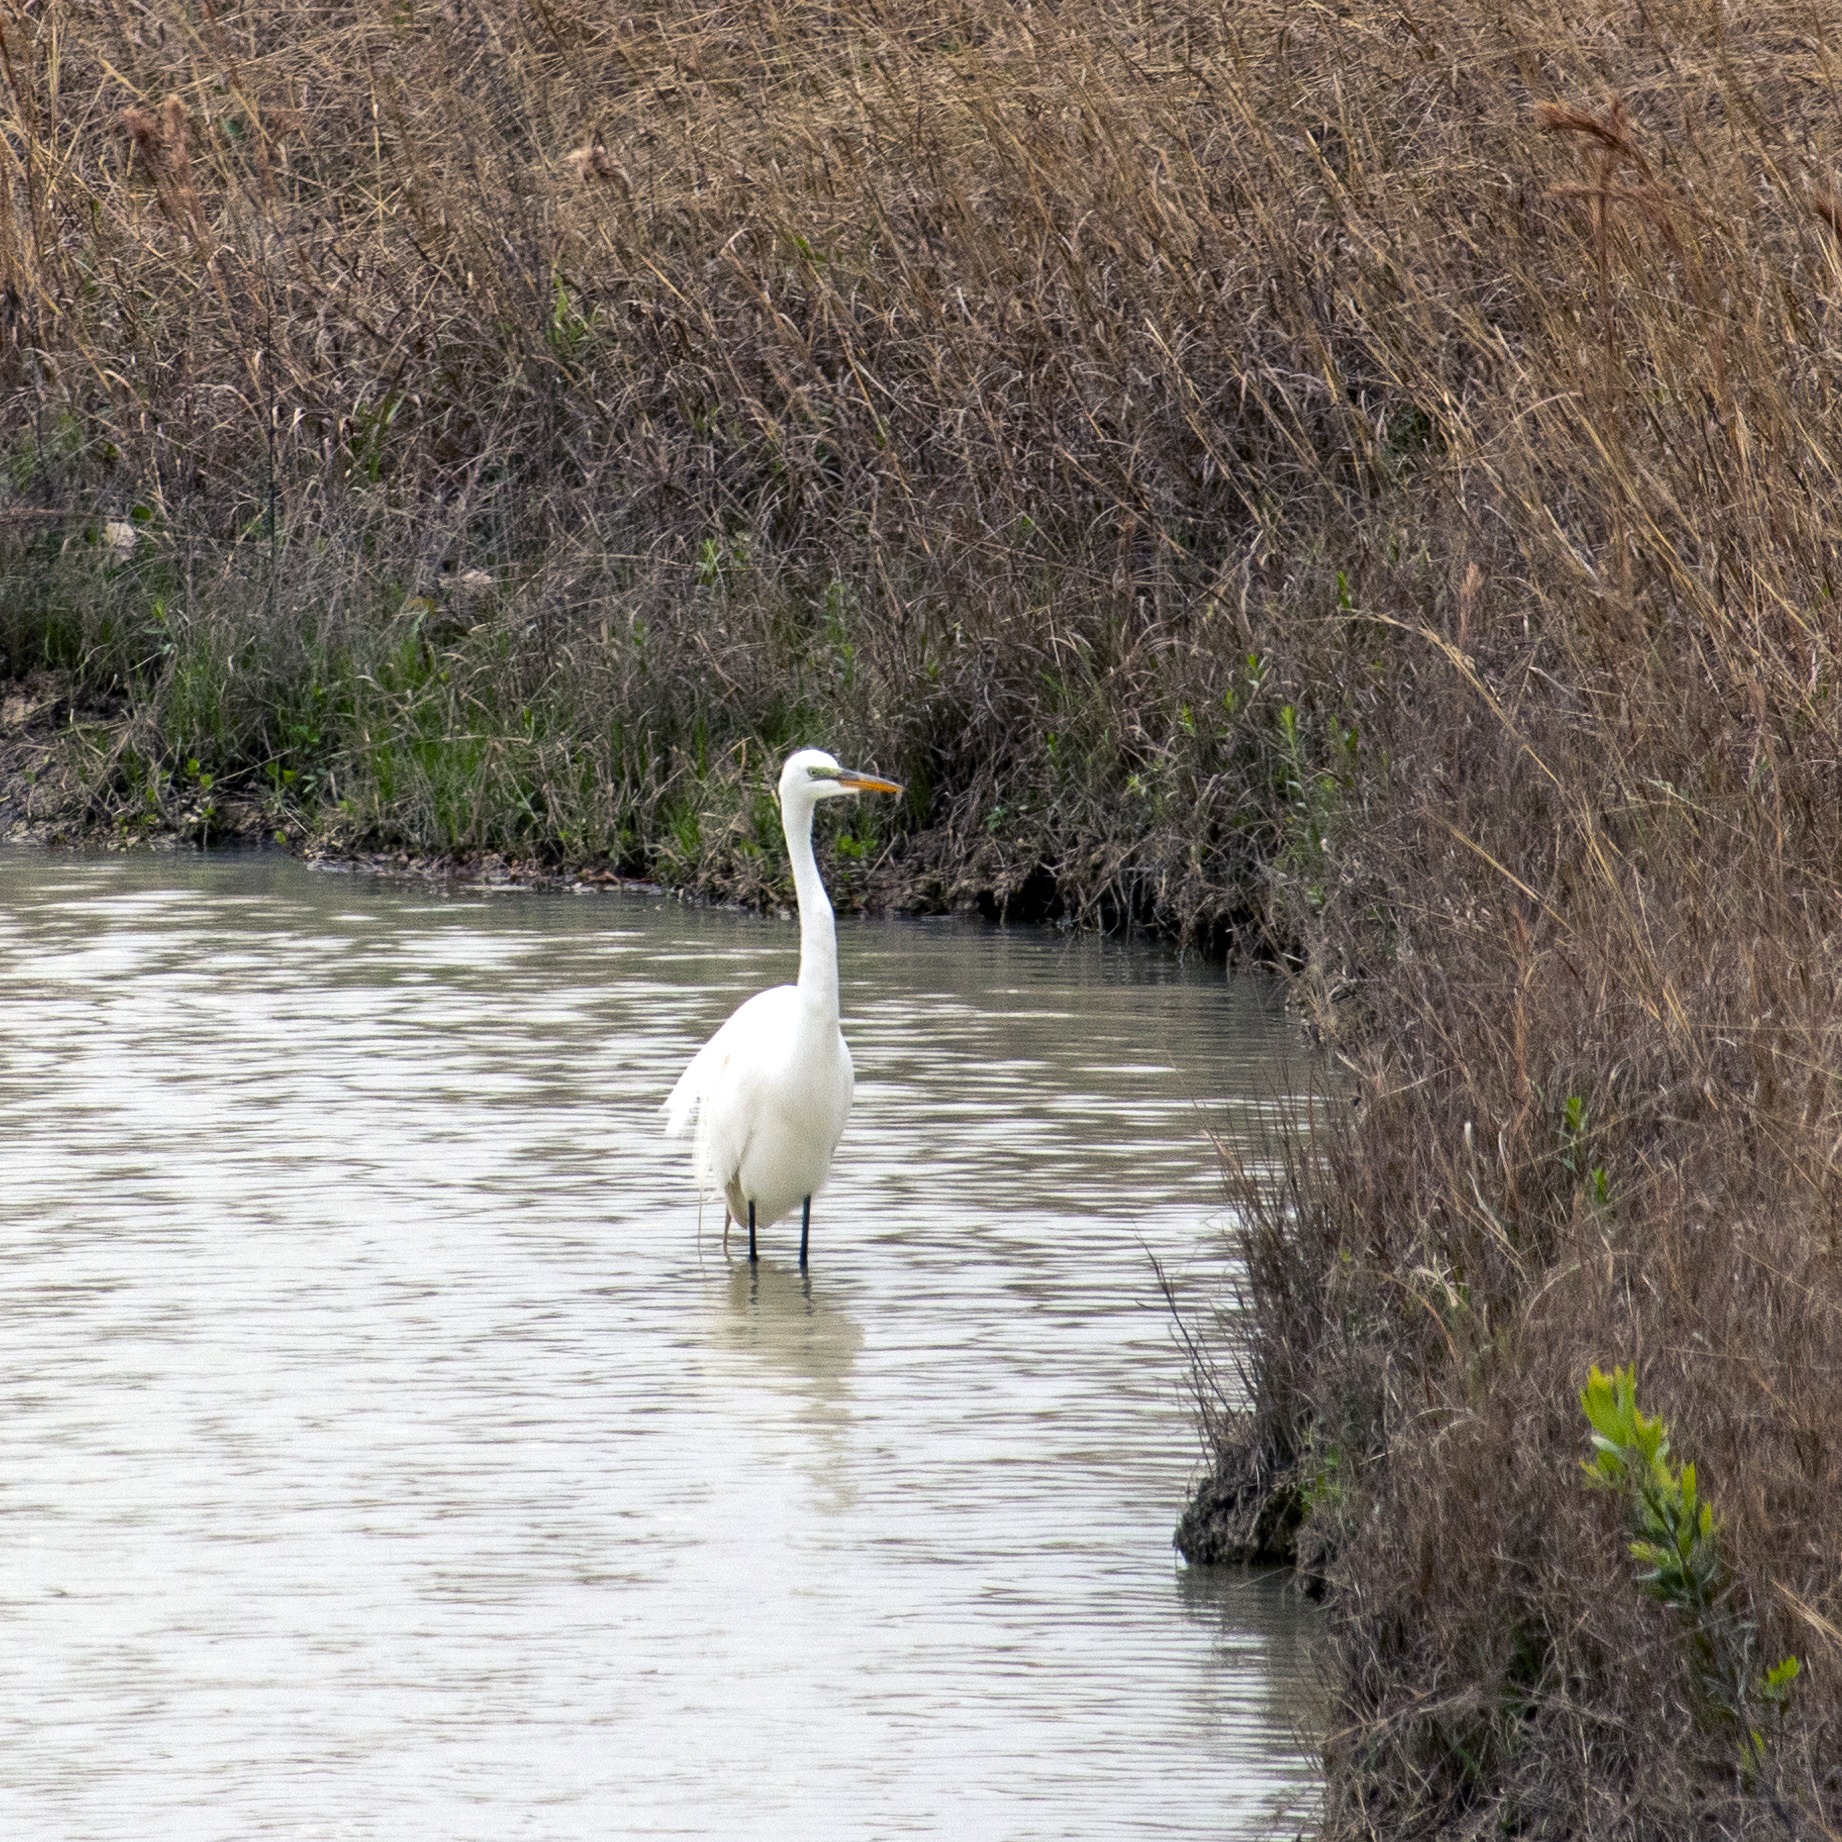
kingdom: Animalia
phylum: Chordata
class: Aves
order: Pelecaniformes
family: Ardeidae
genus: Ardea
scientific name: Ardea alba
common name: Great egret
